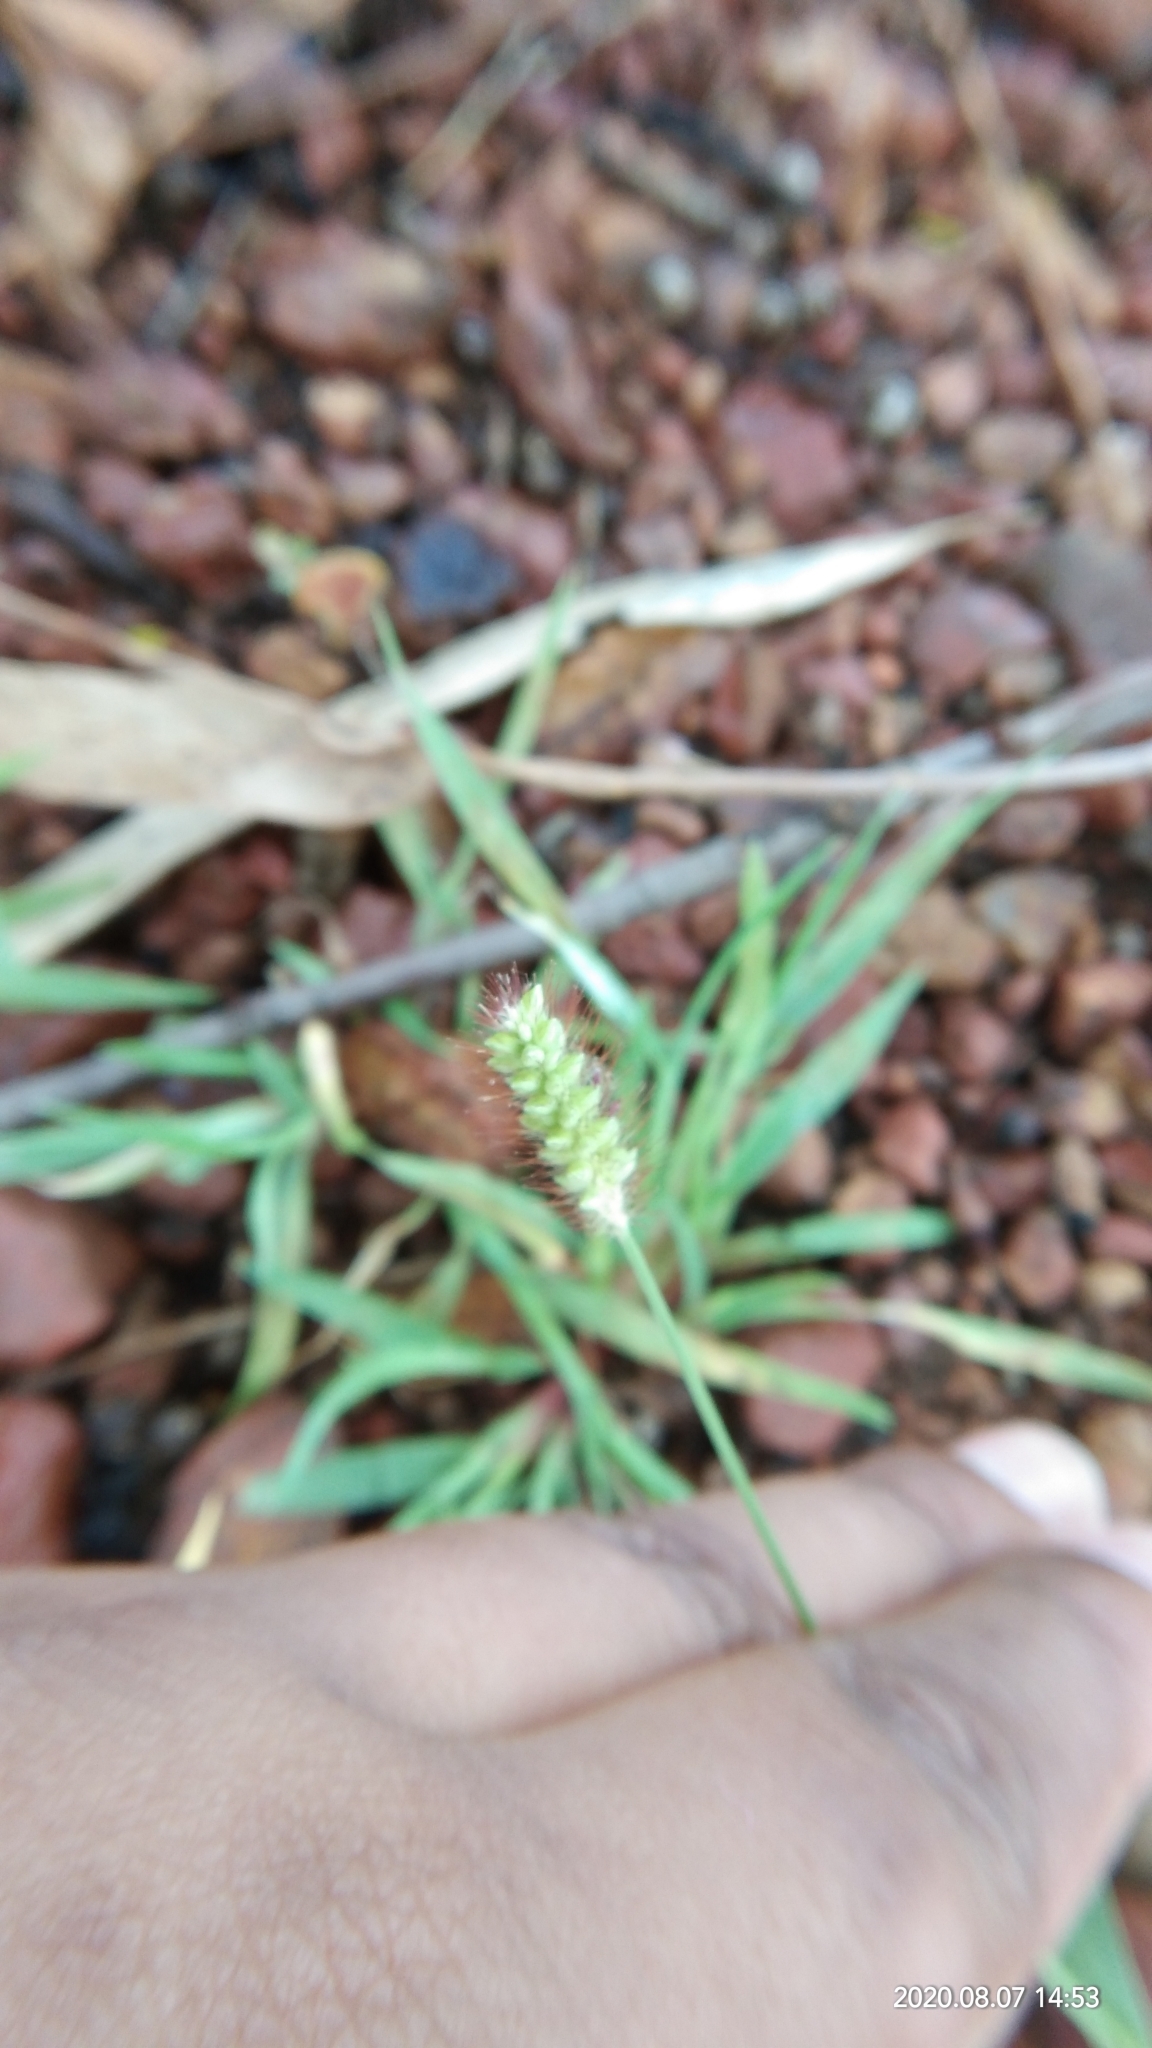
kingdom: Plantae
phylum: Tracheophyta
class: Liliopsida
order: Poales
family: Poaceae
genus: Setaria
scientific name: Setaria pumila
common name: Yellow bristle-grass
